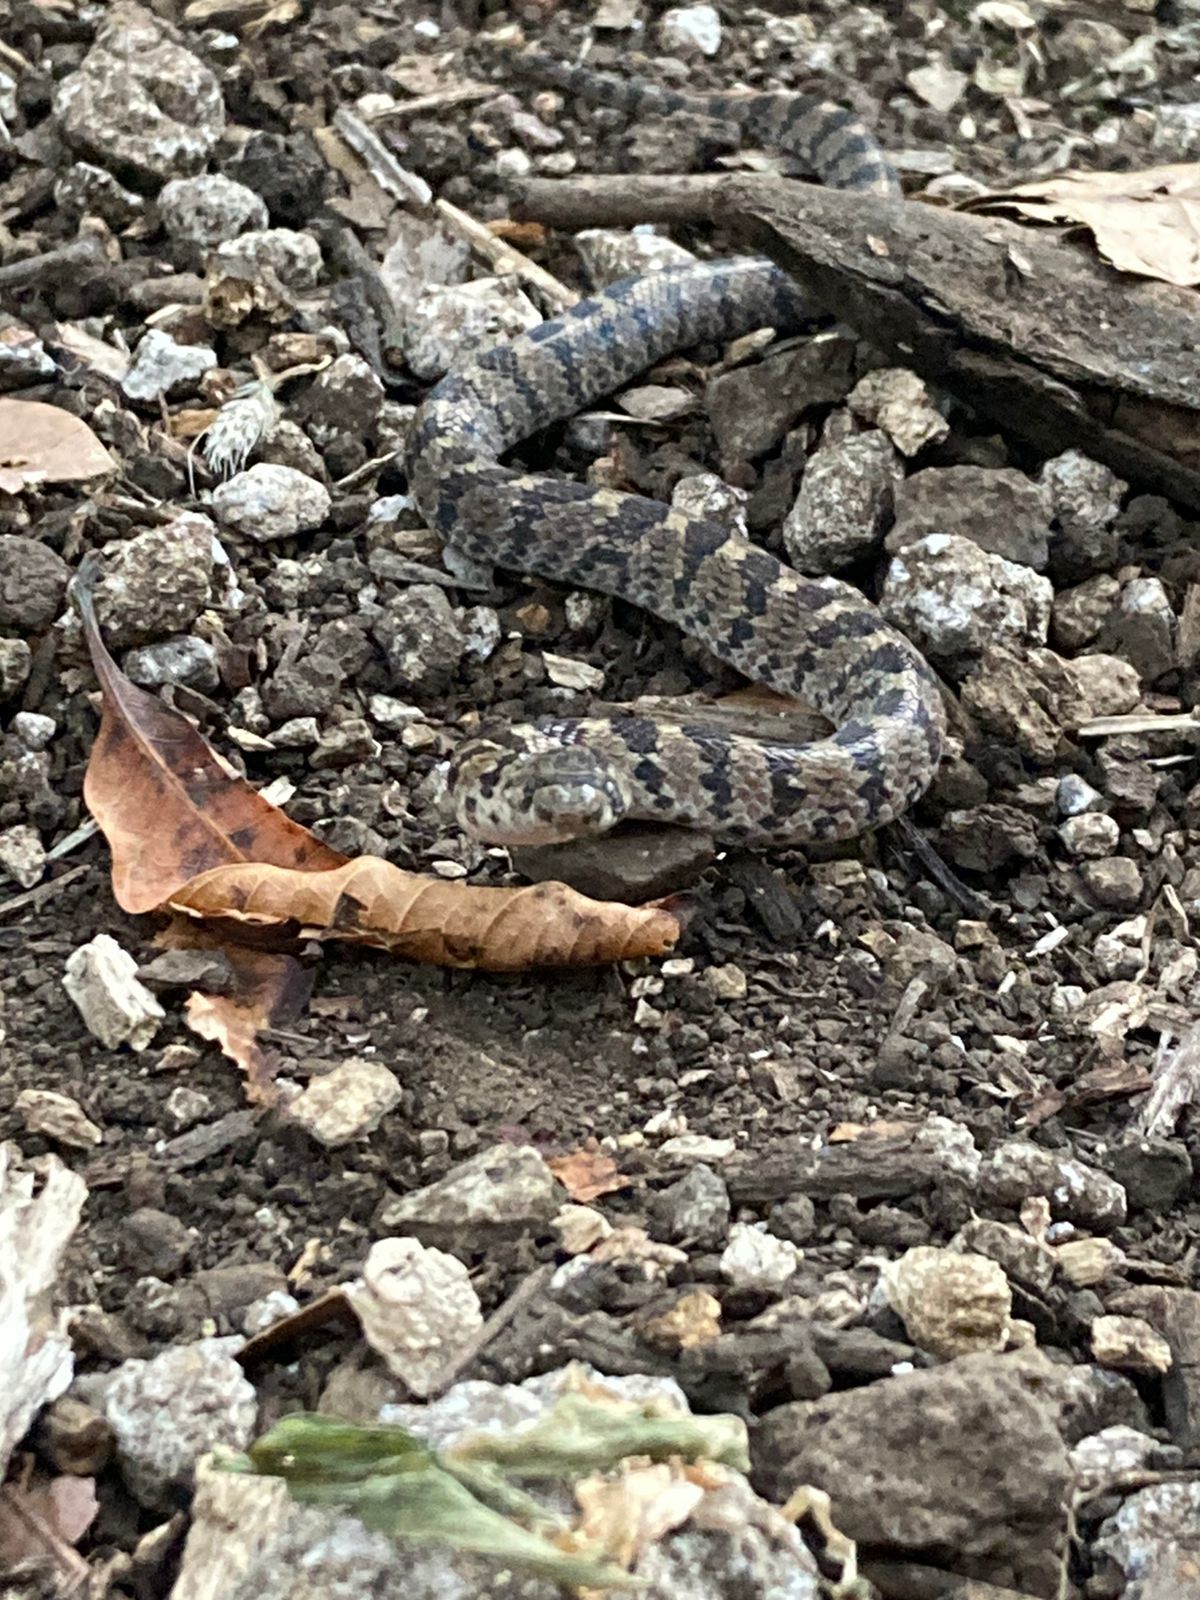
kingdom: Animalia
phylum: Chordata
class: Squamata
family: Colubridae
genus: Pseudoficimia
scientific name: Pseudoficimia frontalis
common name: False ficimia
